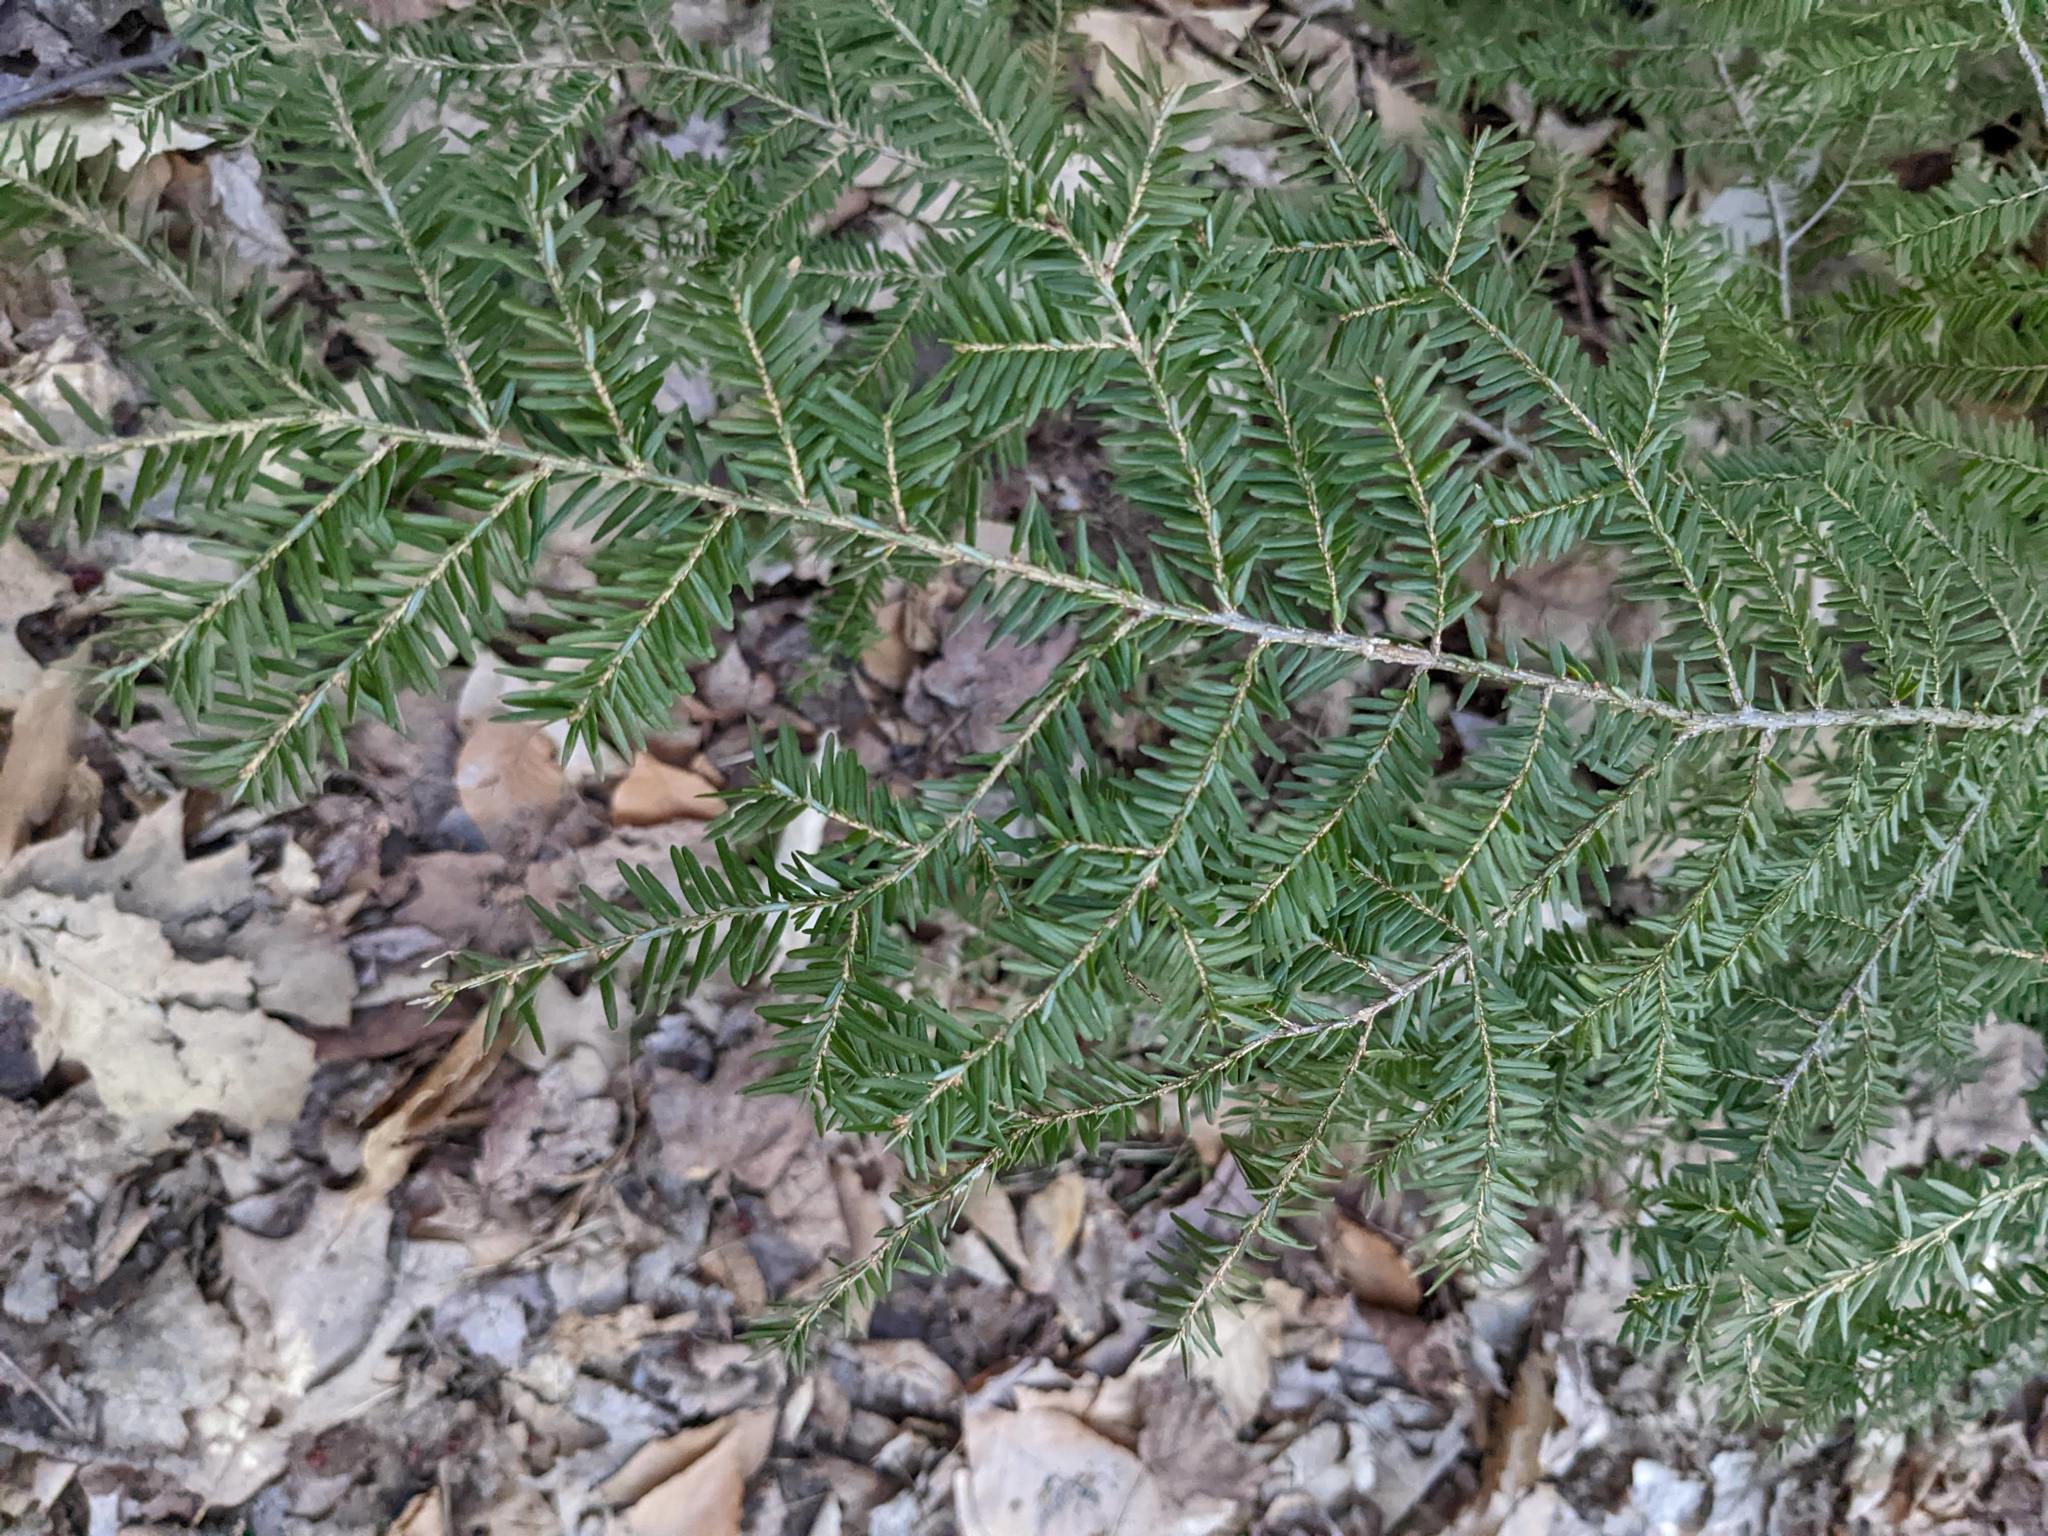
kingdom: Plantae
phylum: Tracheophyta
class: Pinopsida
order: Pinales
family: Pinaceae
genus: Tsuga
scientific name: Tsuga canadensis
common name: Eastern hemlock
